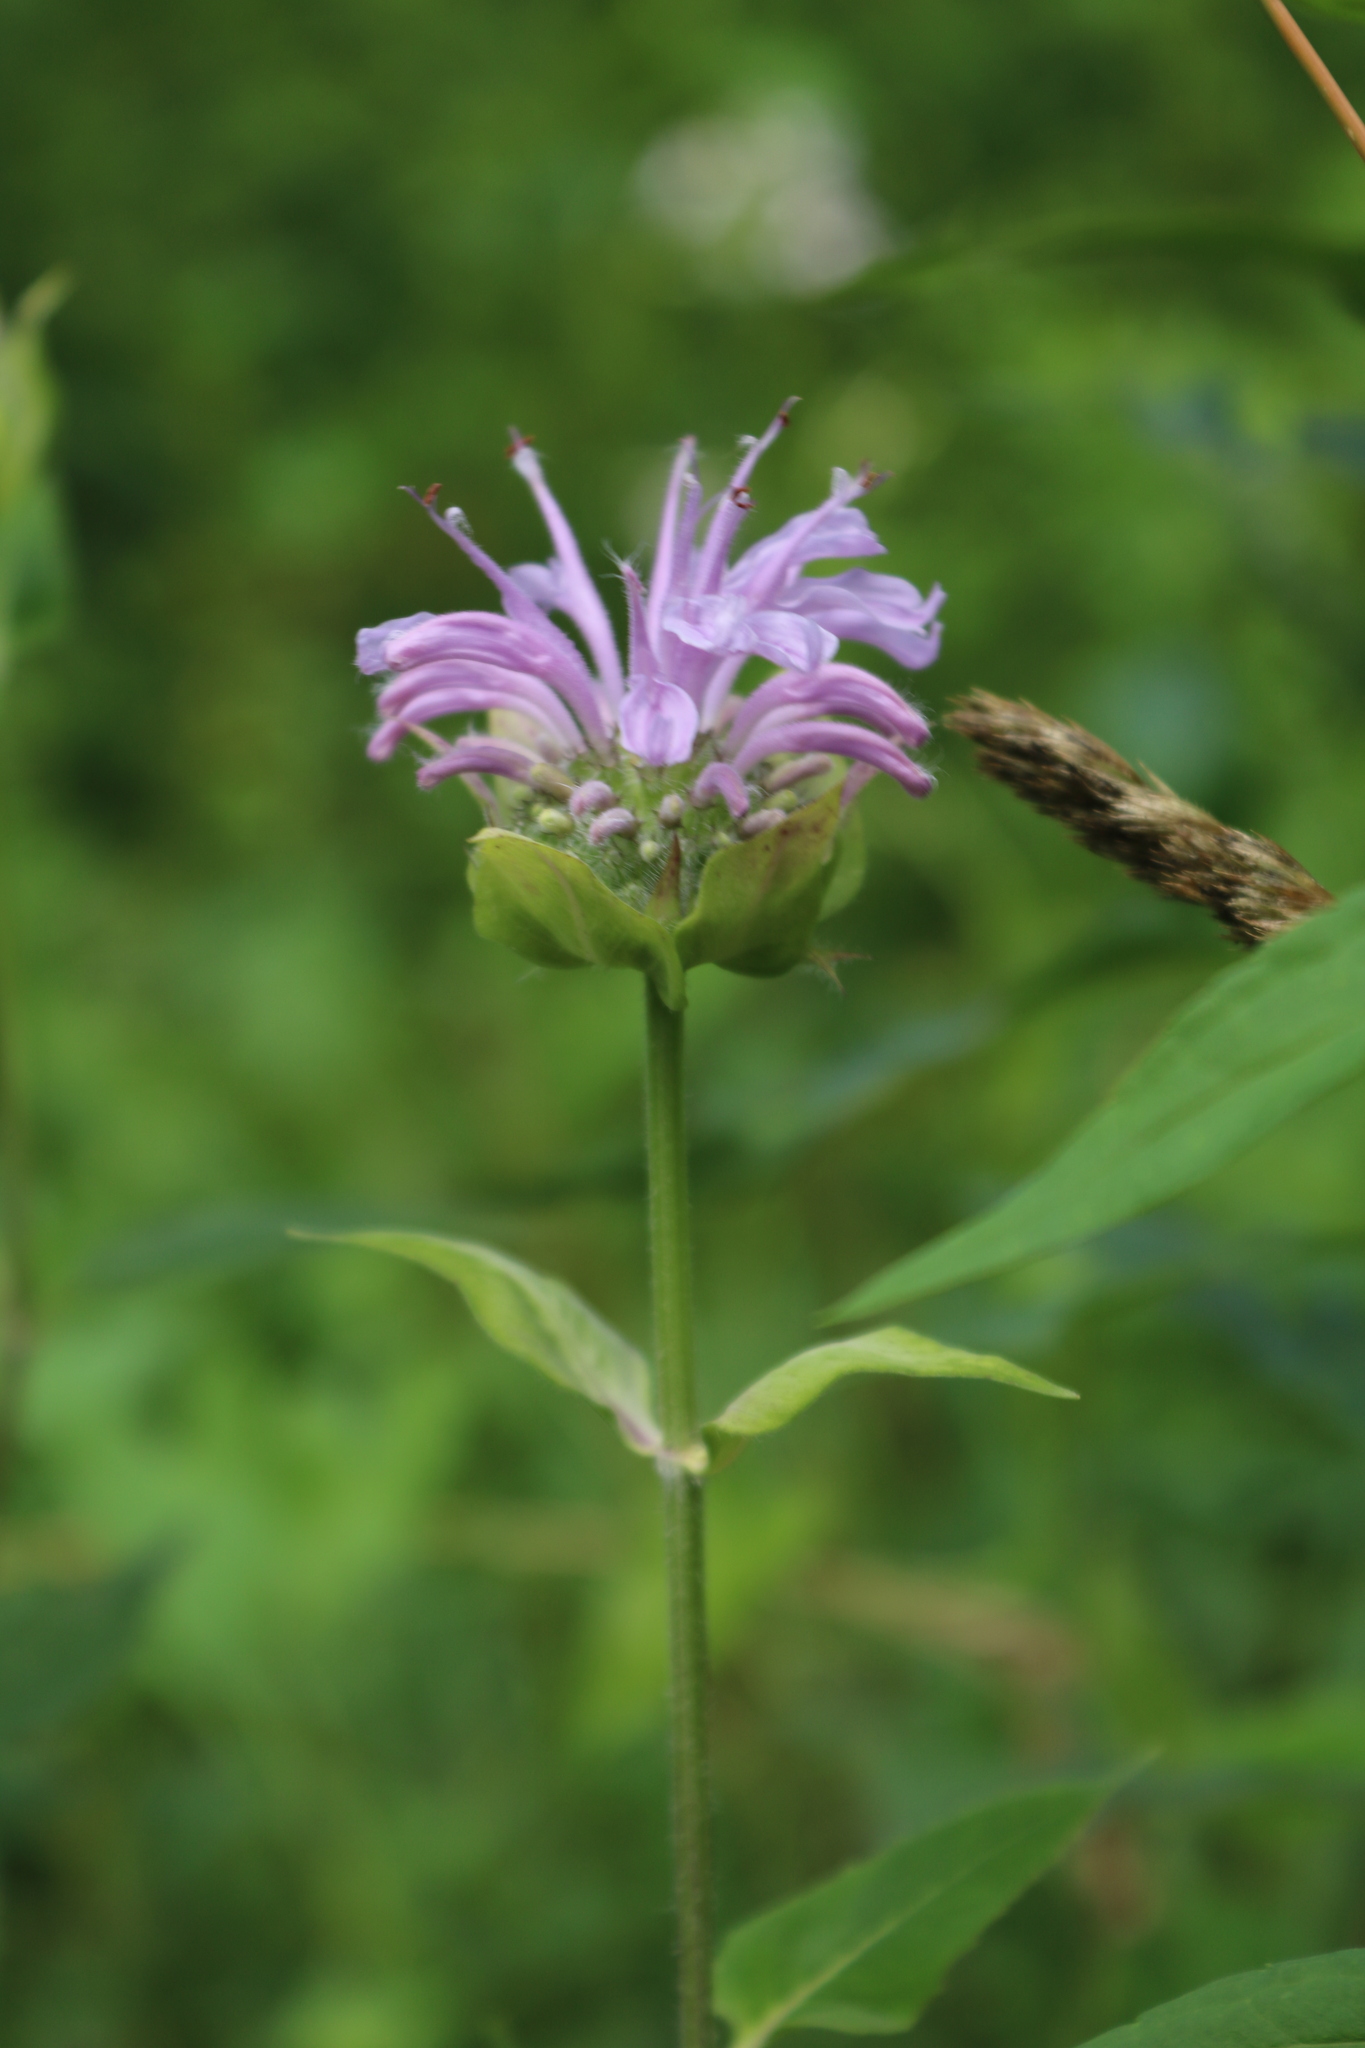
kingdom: Plantae
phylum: Tracheophyta
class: Magnoliopsida
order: Lamiales
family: Lamiaceae
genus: Monarda
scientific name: Monarda fistulosa
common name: Purple beebalm
